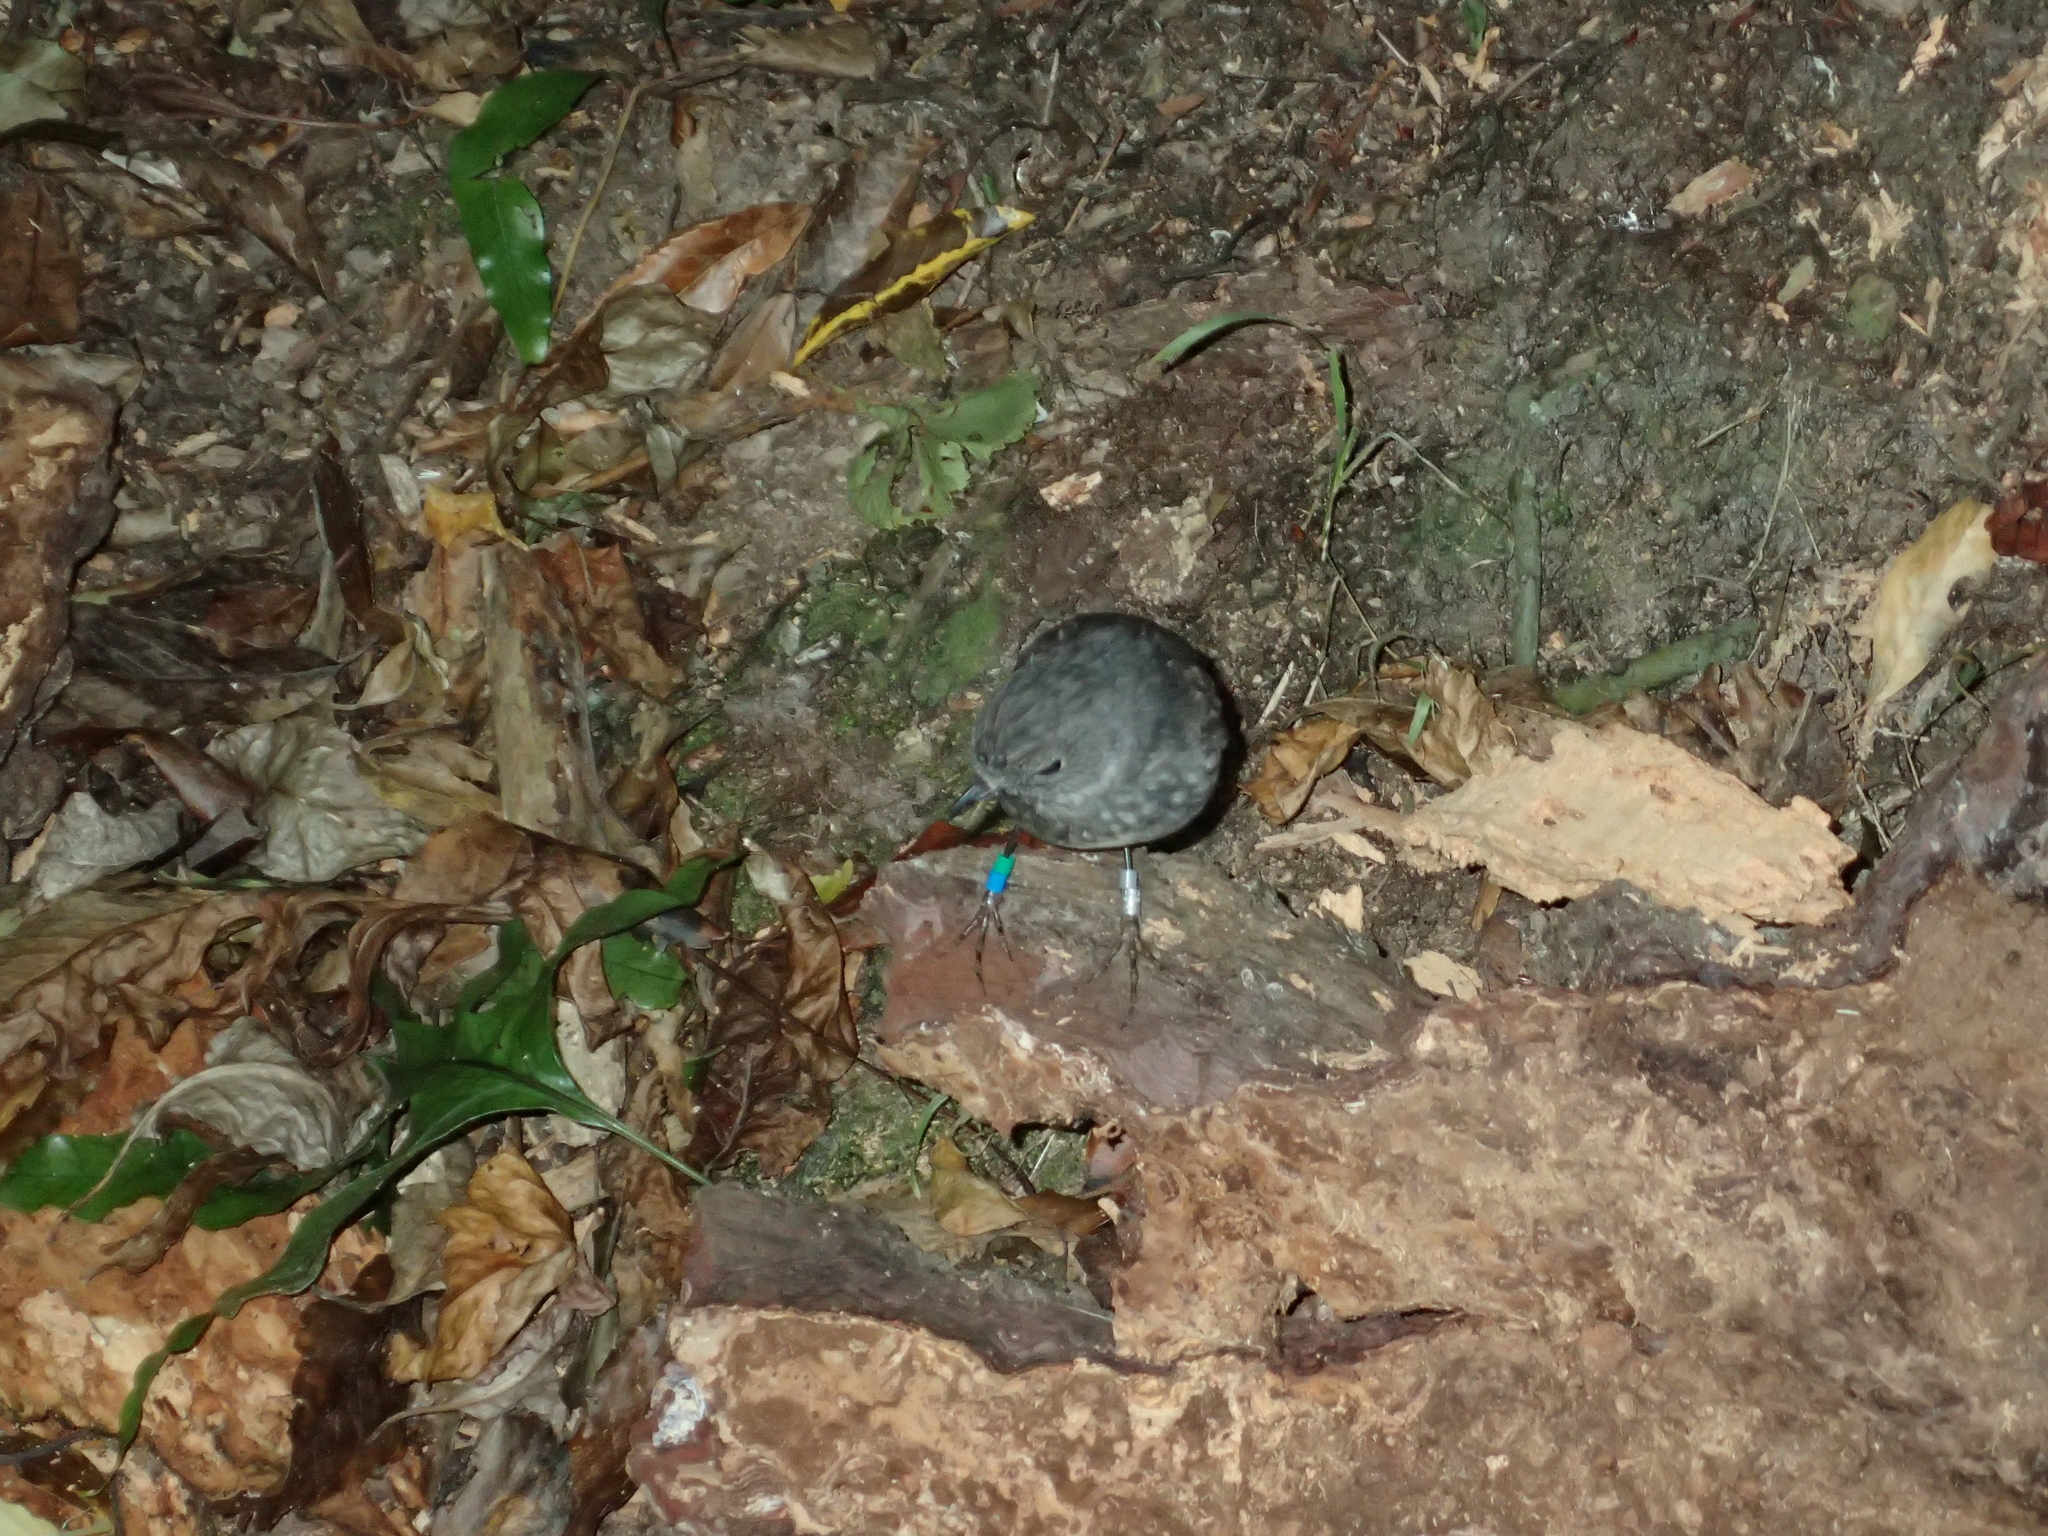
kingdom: Animalia
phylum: Chordata
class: Aves
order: Passeriformes
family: Petroicidae
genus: Petroica
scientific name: Petroica australis
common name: New zealand robin
